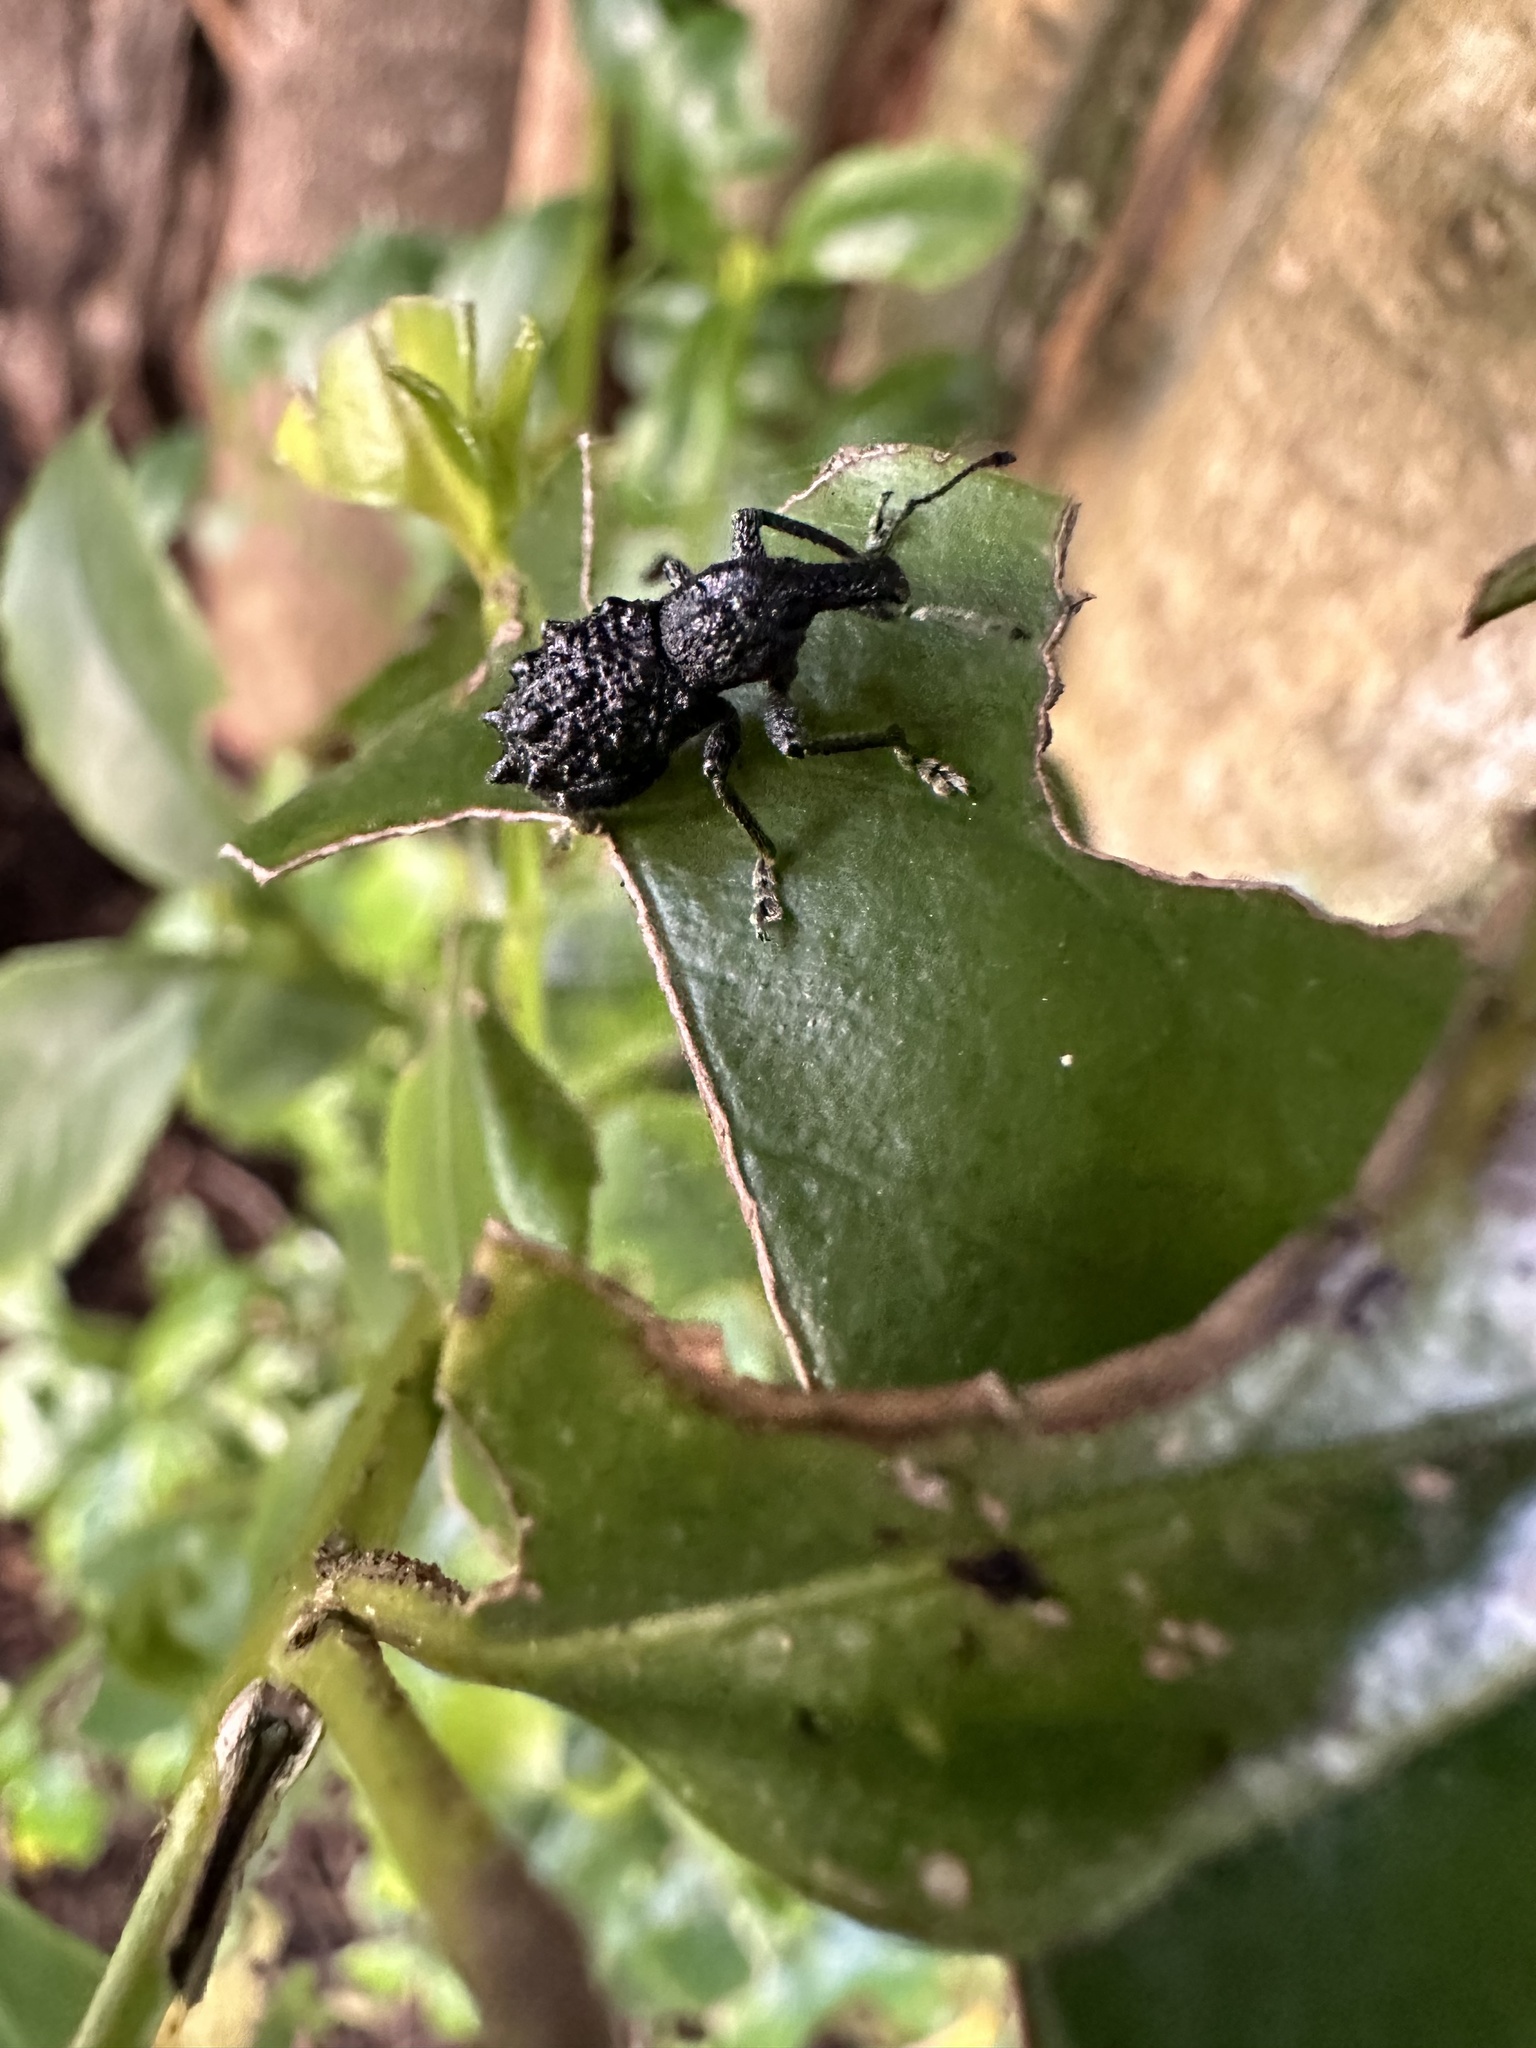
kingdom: Animalia
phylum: Arthropoda
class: Insecta
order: Coleoptera
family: Curculionidae
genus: Megalometis
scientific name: Megalometis spiniferus
